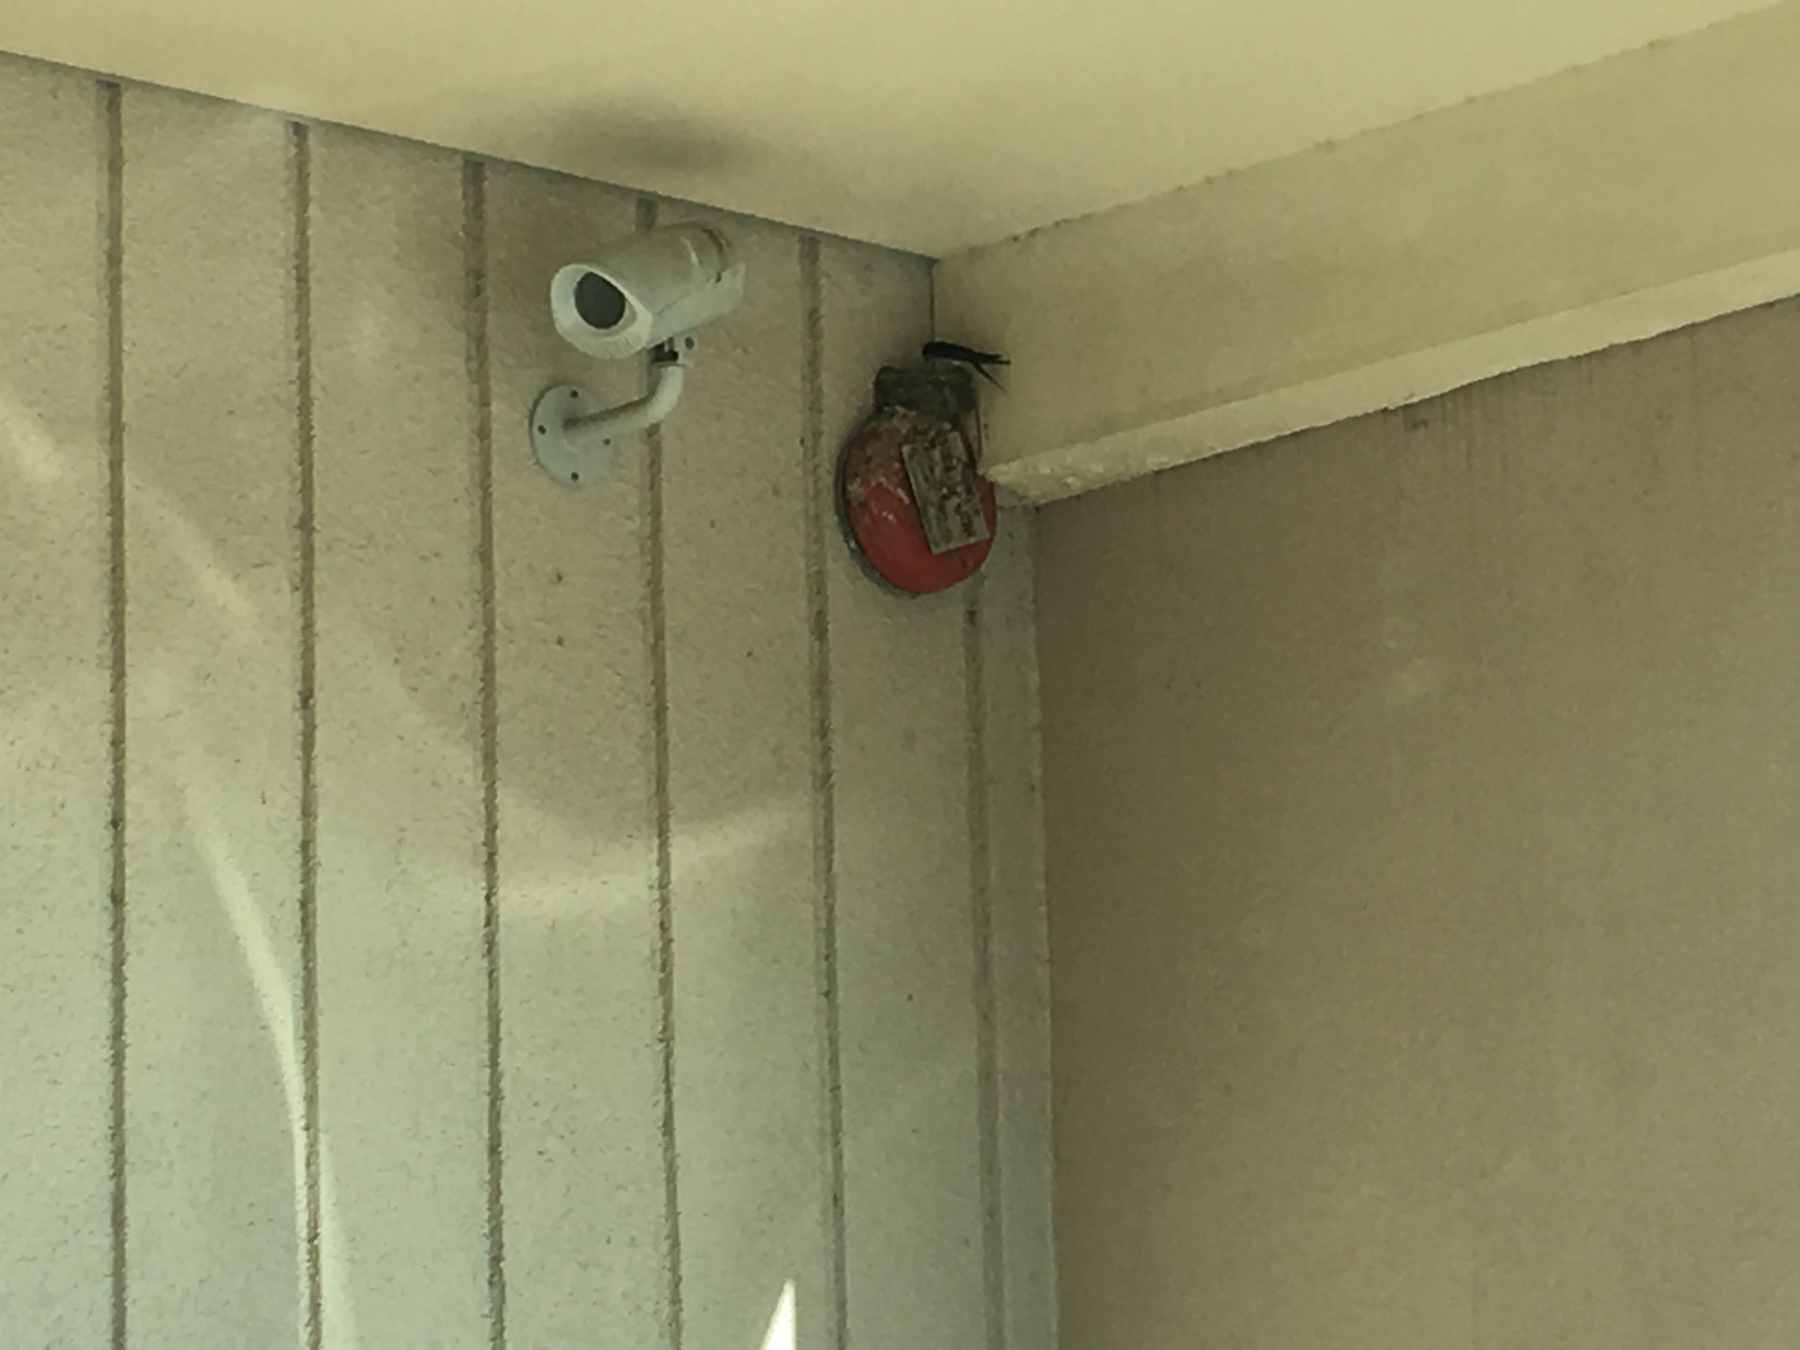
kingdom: Animalia
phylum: Chordata
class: Aves
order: Passeriformes
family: Hirundinidae
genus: Hirundo
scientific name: Hirundo rustica
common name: Barn swallow
